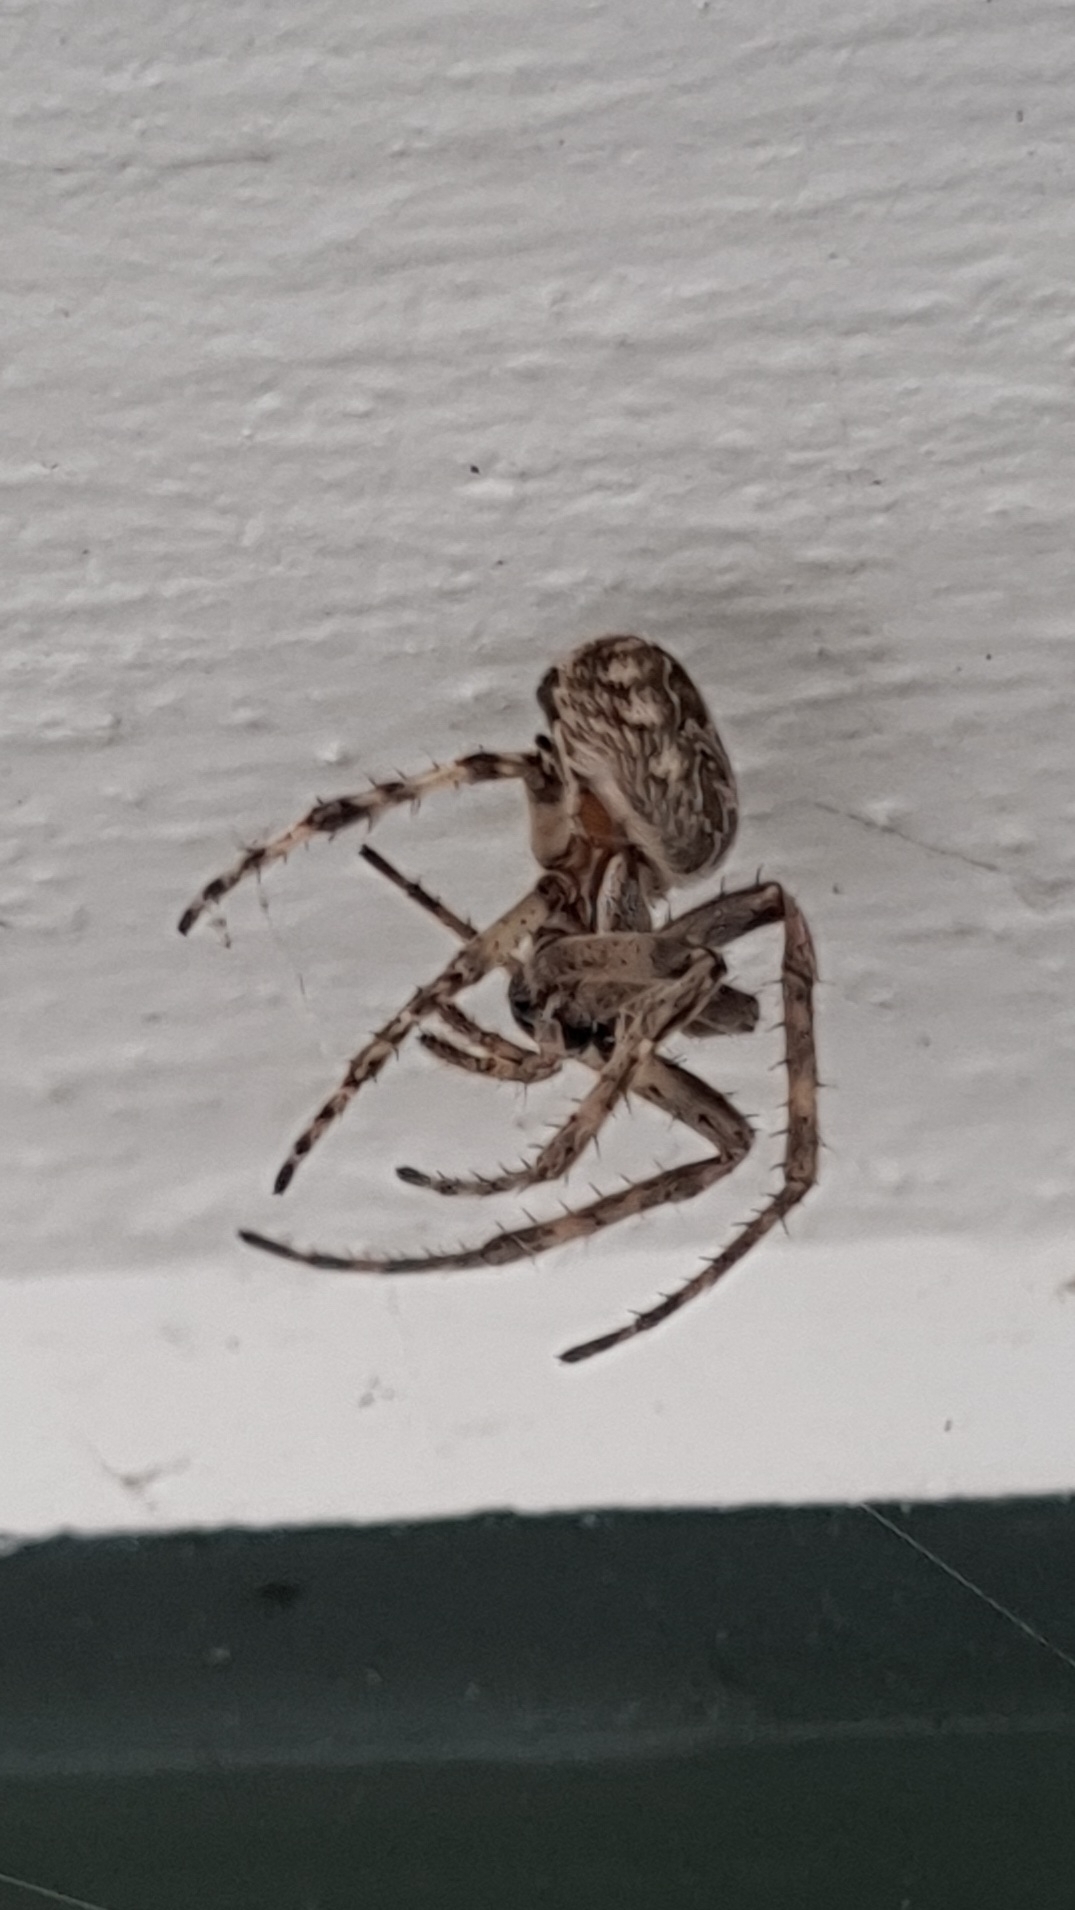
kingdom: Animalia
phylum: Arthropoda
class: Arachnida
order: Araneae
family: Araneidae
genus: Larinioides
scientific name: Larinioides sclopetarius
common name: Bridge orbweaver
